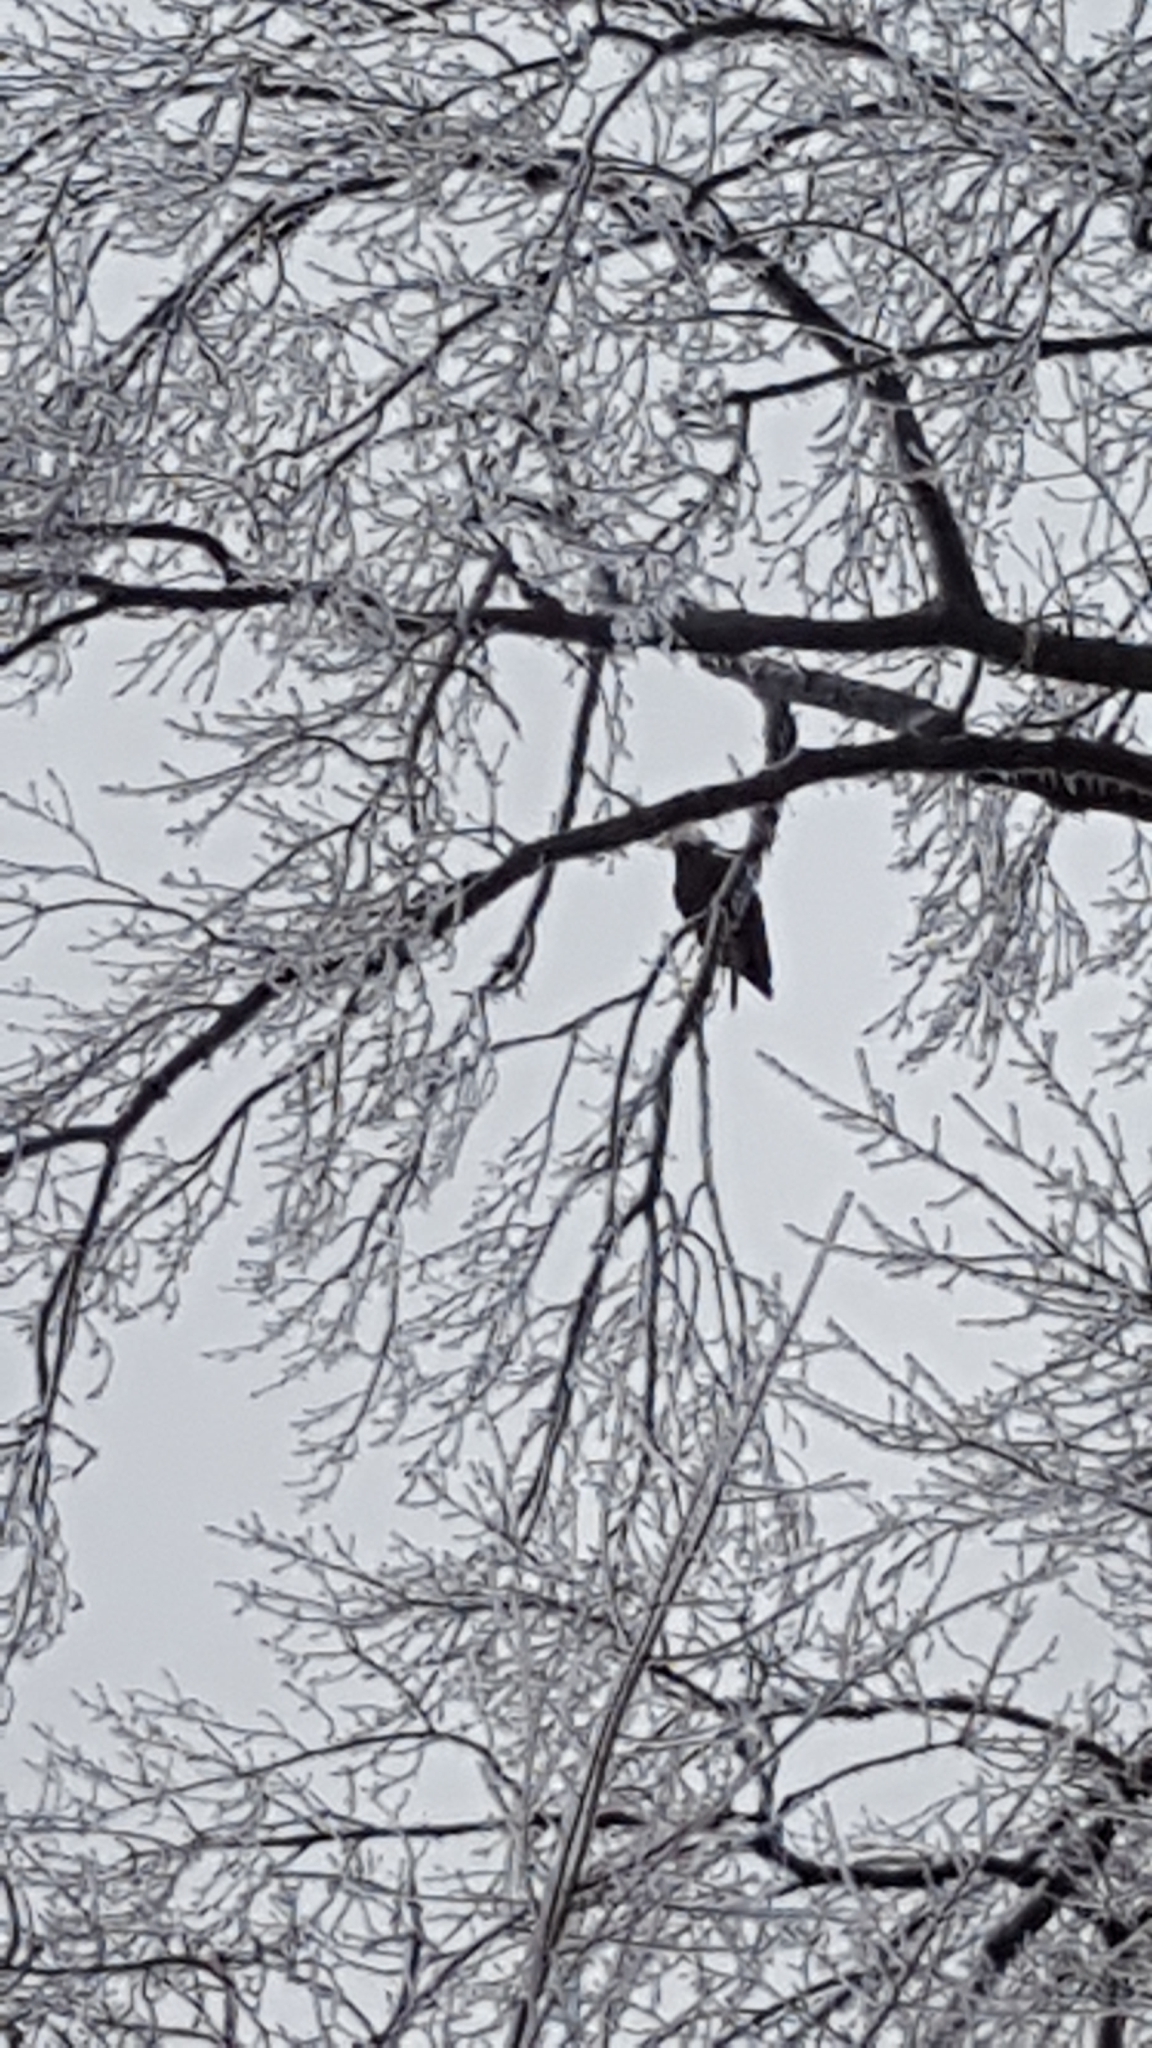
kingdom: Animalia
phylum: Chordata
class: Aves
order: Accipitriformes
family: Accipitridae
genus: Haliaeetus
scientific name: Haliaeetus leucocephalus
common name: Bald eagle
